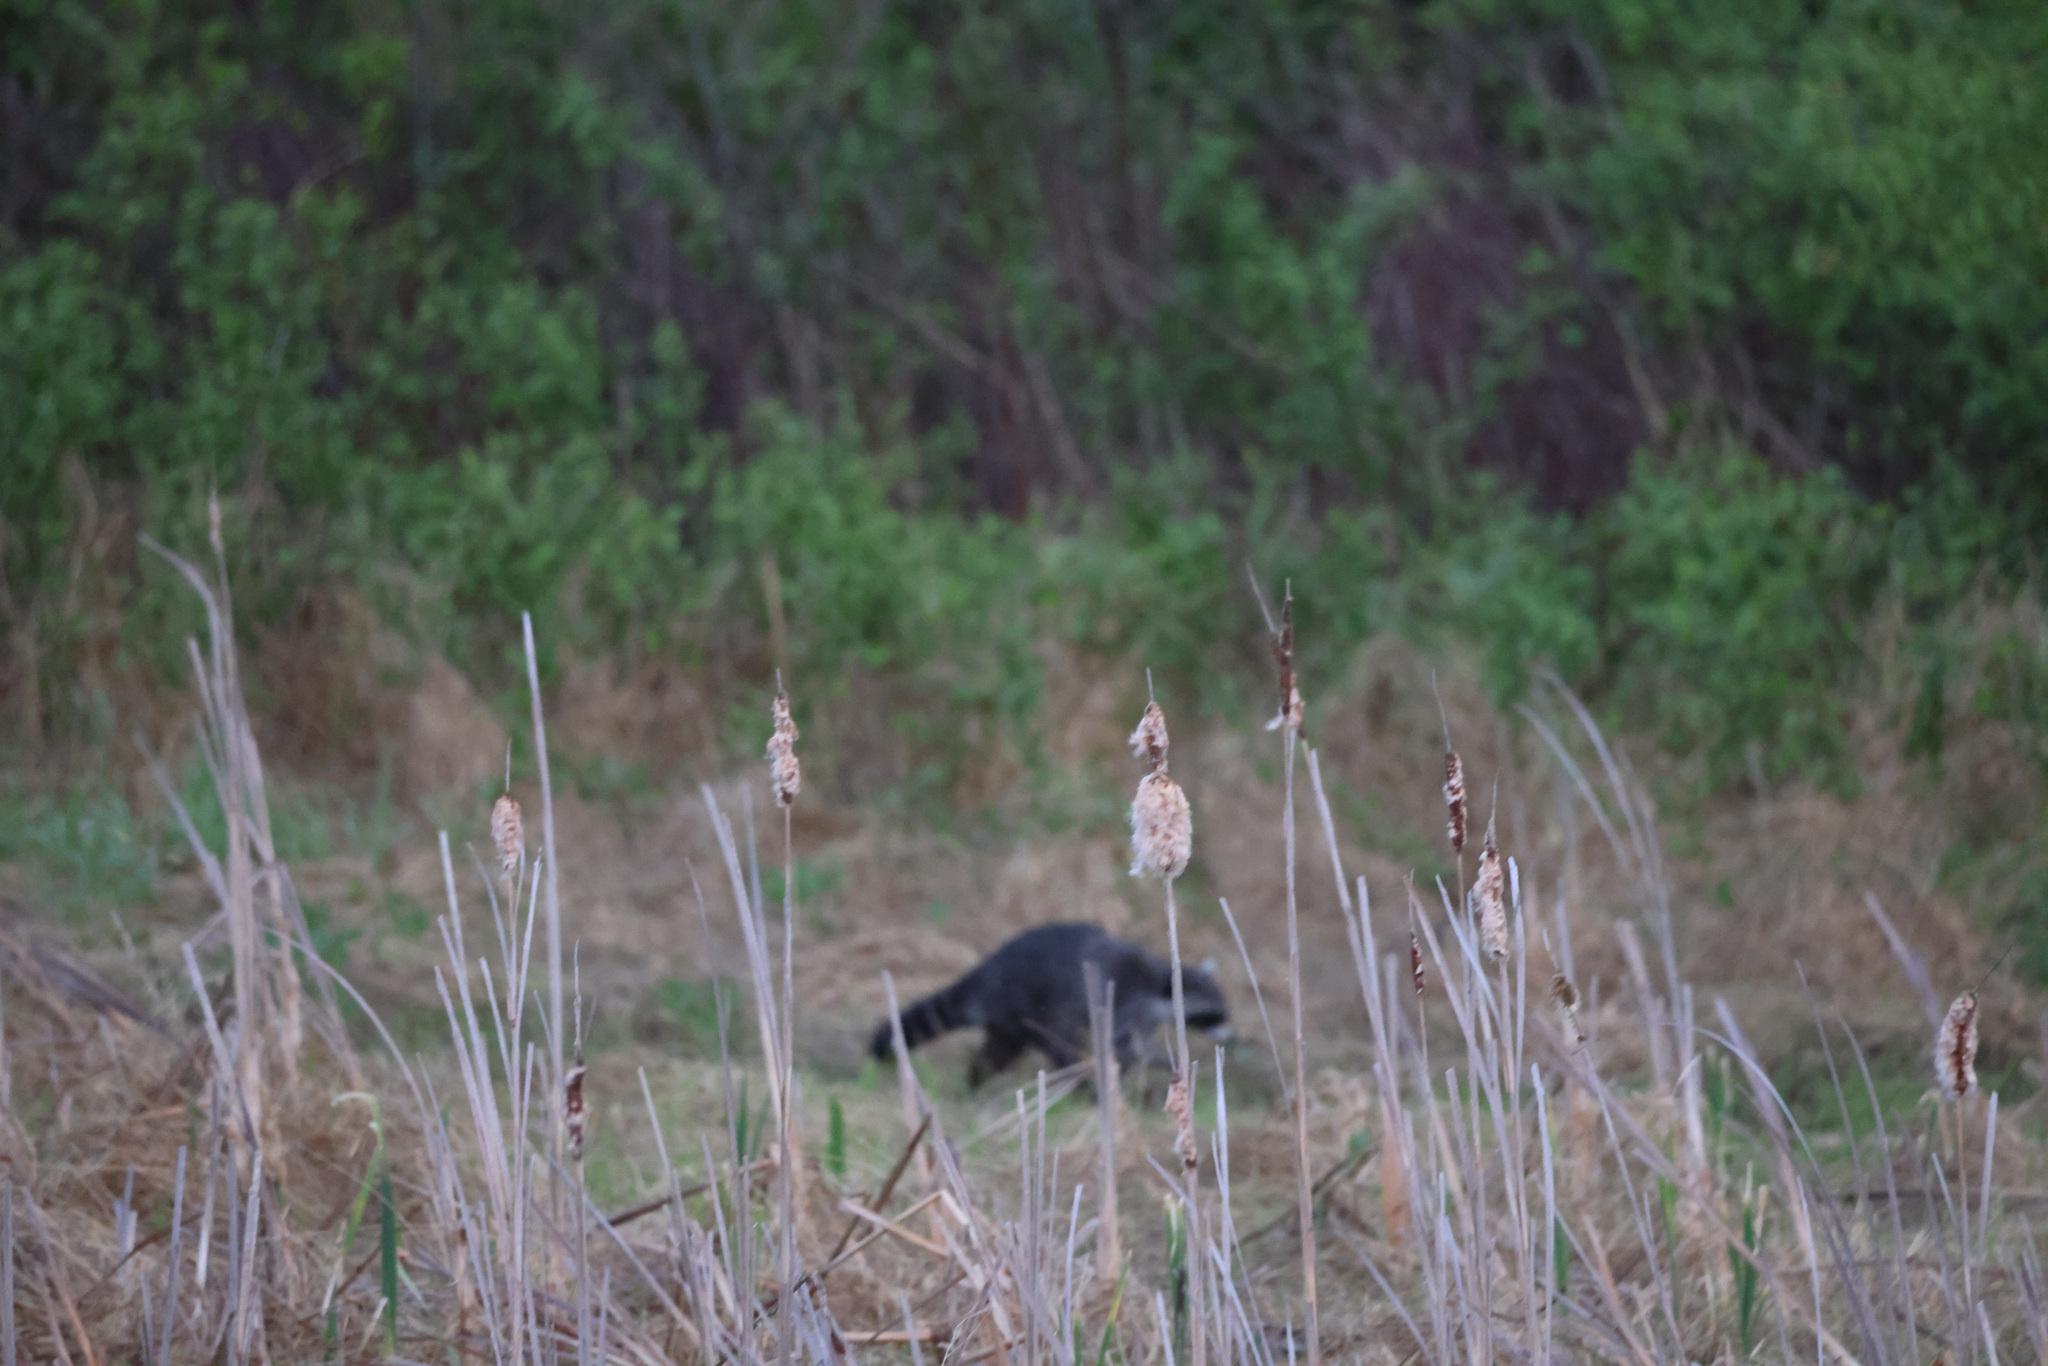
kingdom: Animalia
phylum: Chordata
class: Mammalia
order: Carnivora
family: Procyonidae
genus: Procyon
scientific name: Procyon lotor
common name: Raccoon
